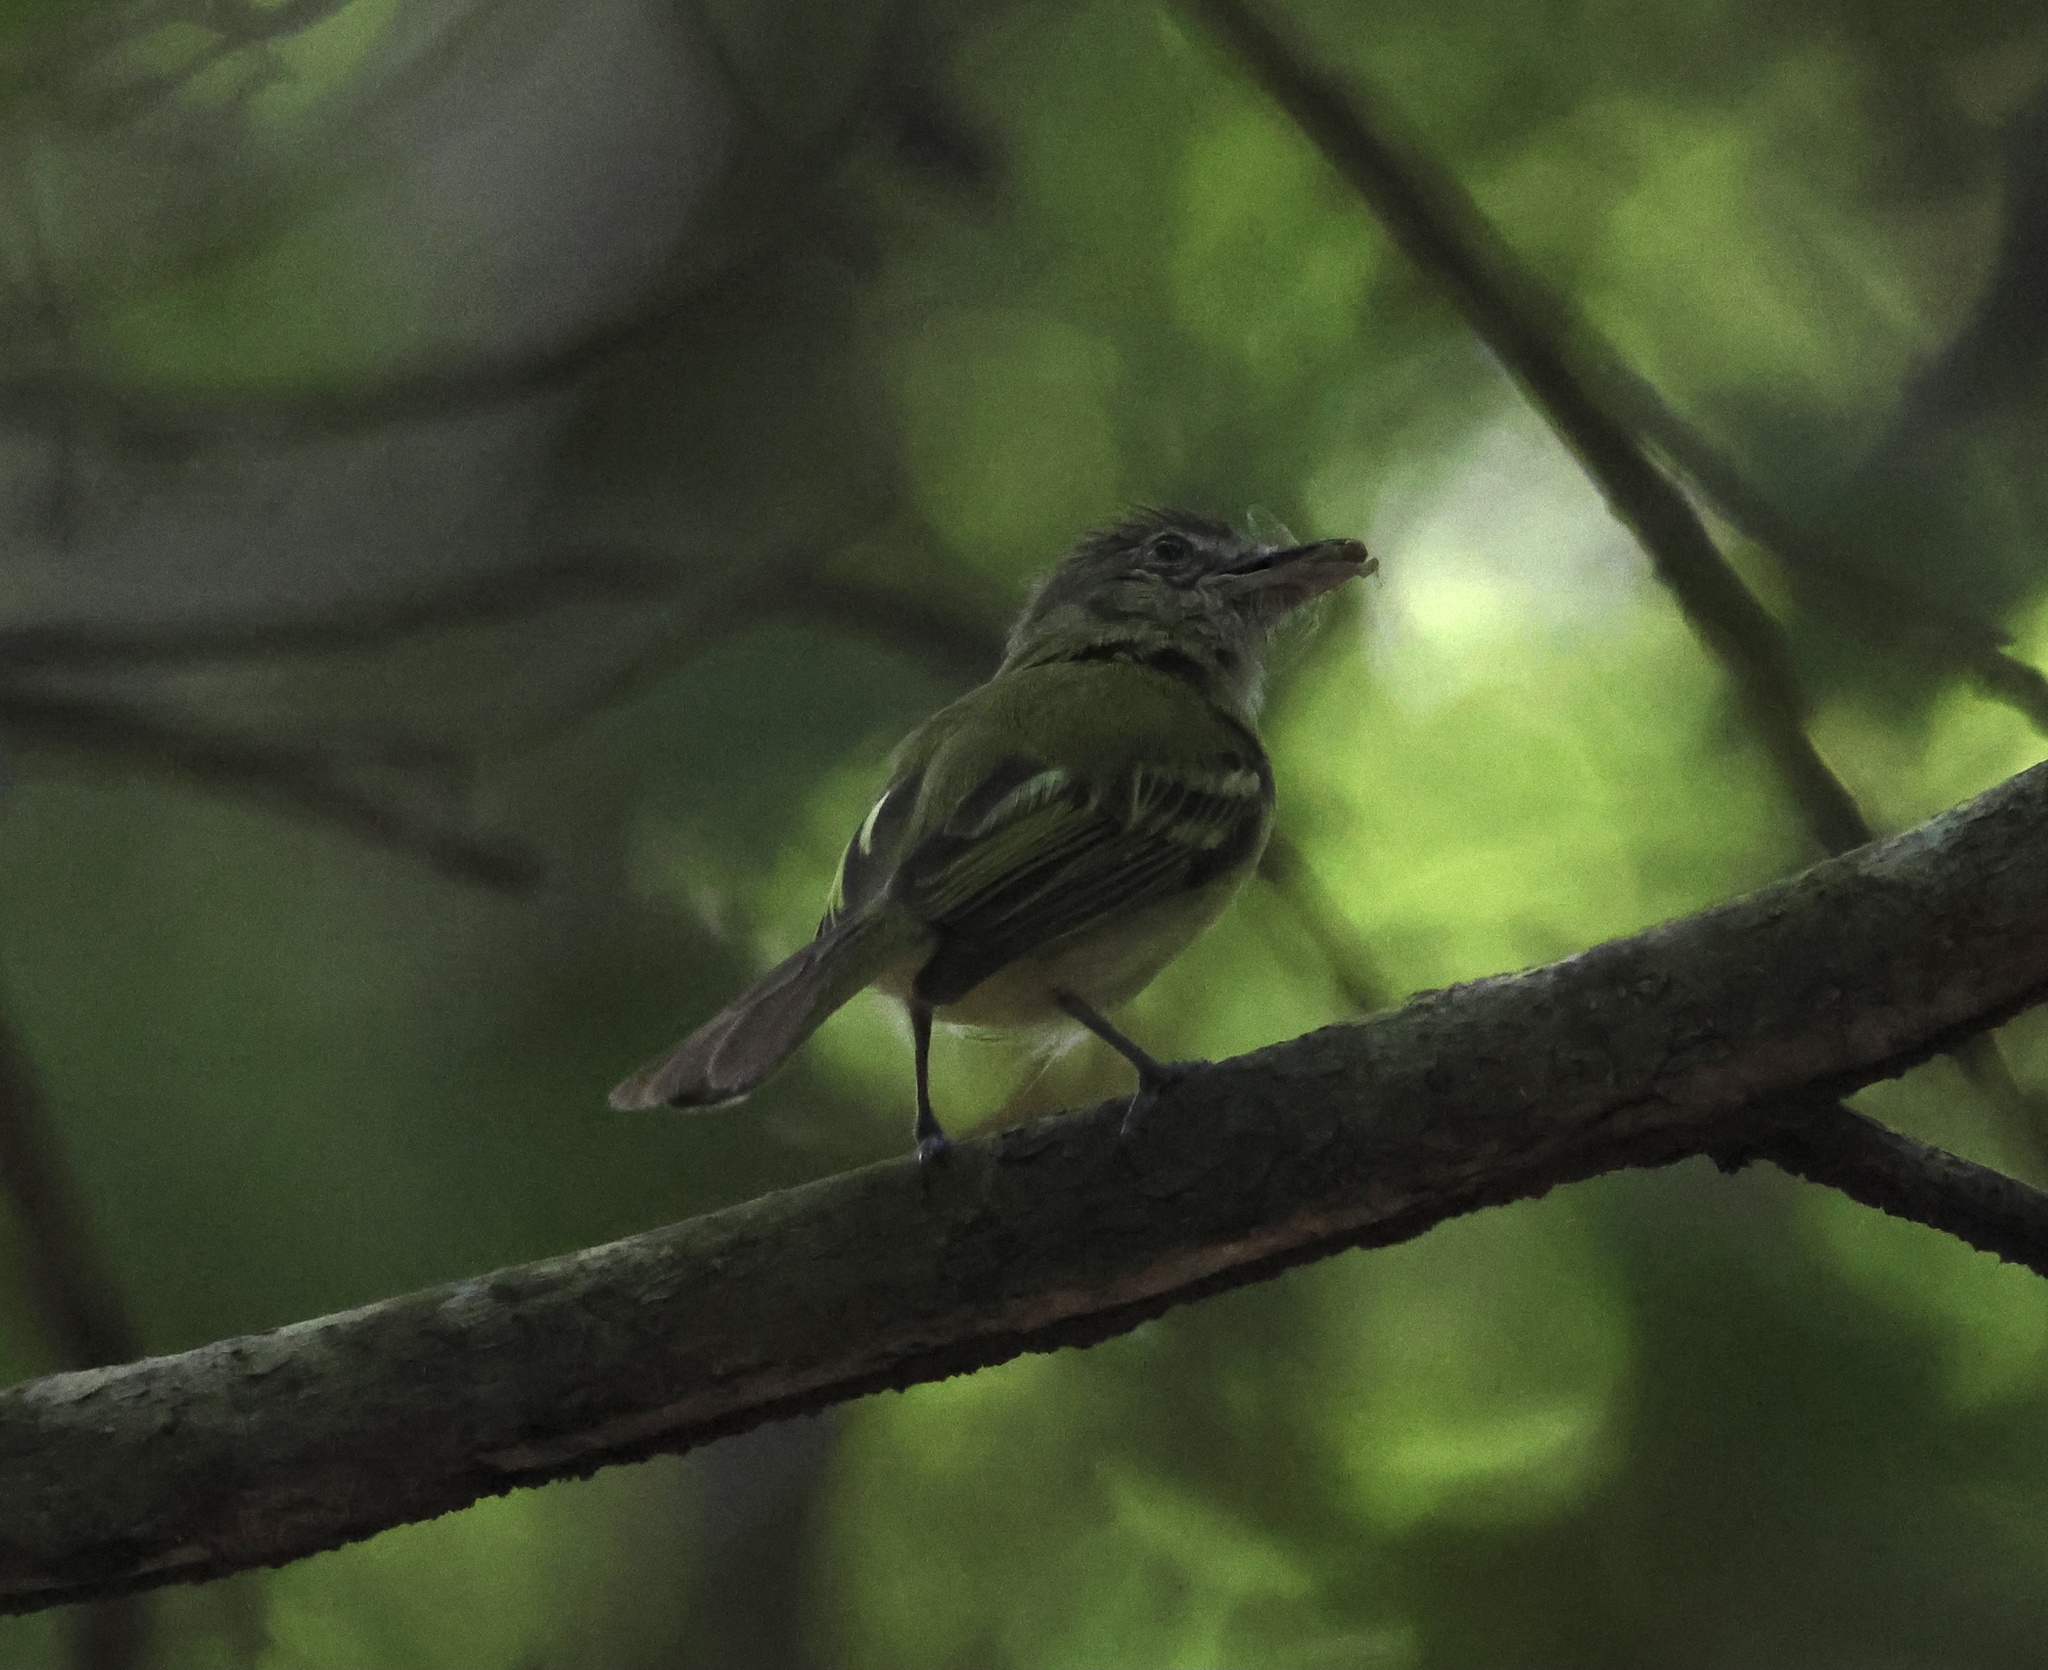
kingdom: Animalia
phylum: Chordata
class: Aves
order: Passeriformes
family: Tyrannidae
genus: Tolmomyias
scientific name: Tolmomyias sulphurescens
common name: Yellow-olive flycatcher
